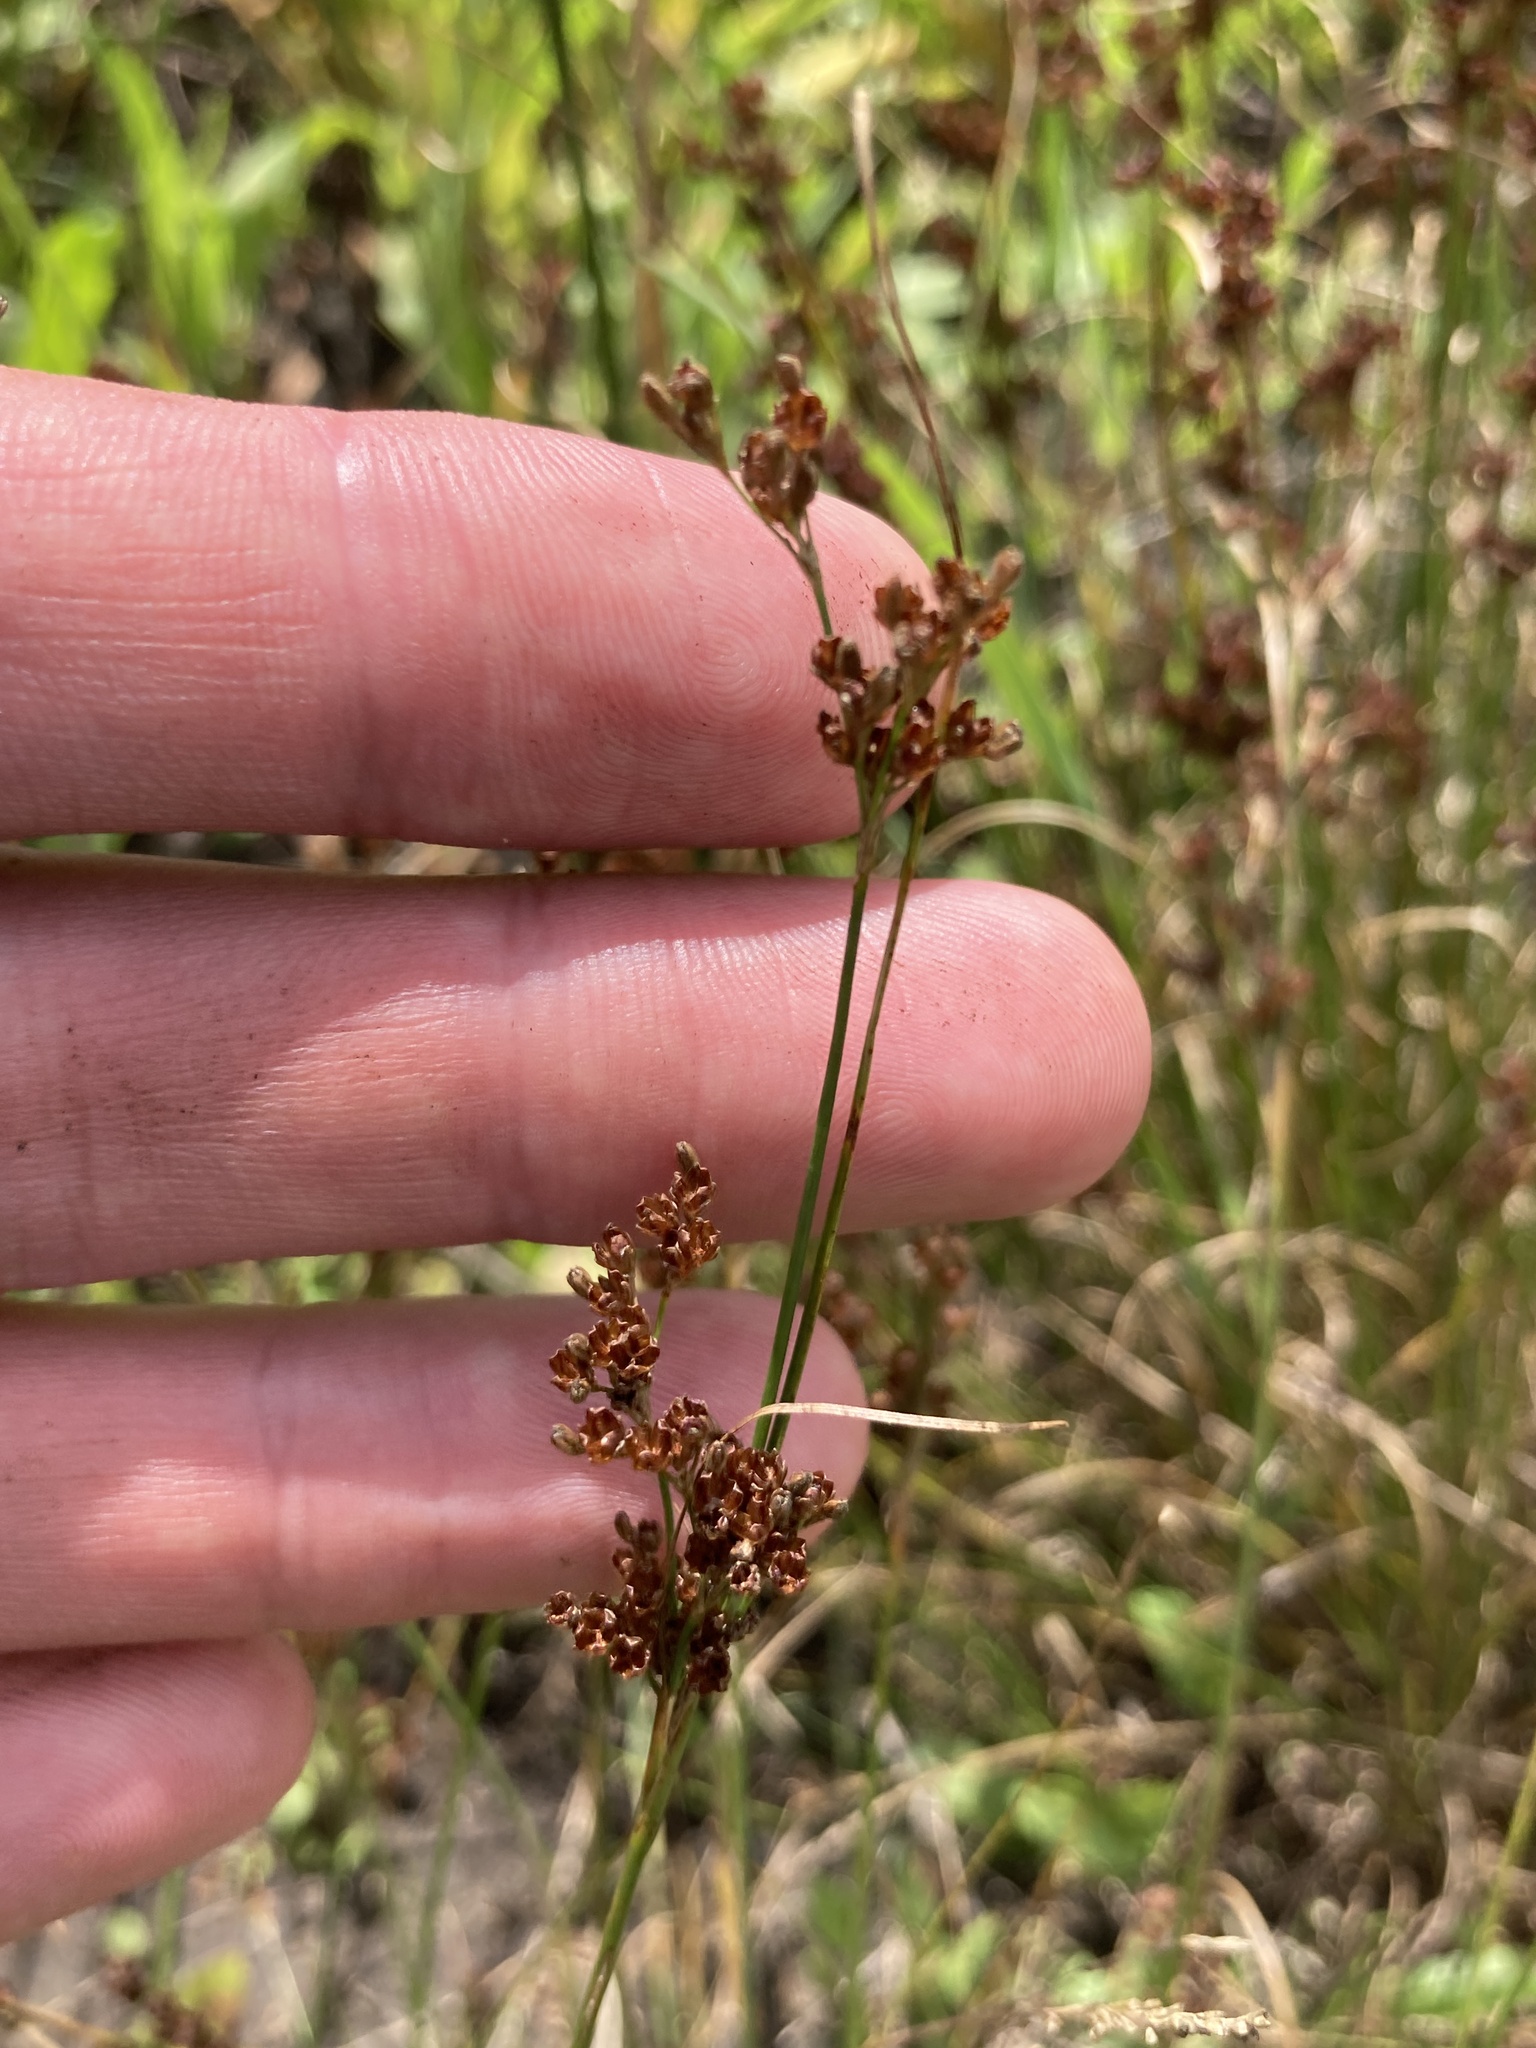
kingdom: Plantae
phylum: Tracheophyta
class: Liliopsida
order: Poales
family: Juncaceae
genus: Juncus
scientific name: Juncus compressus
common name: Round-fruited rush
